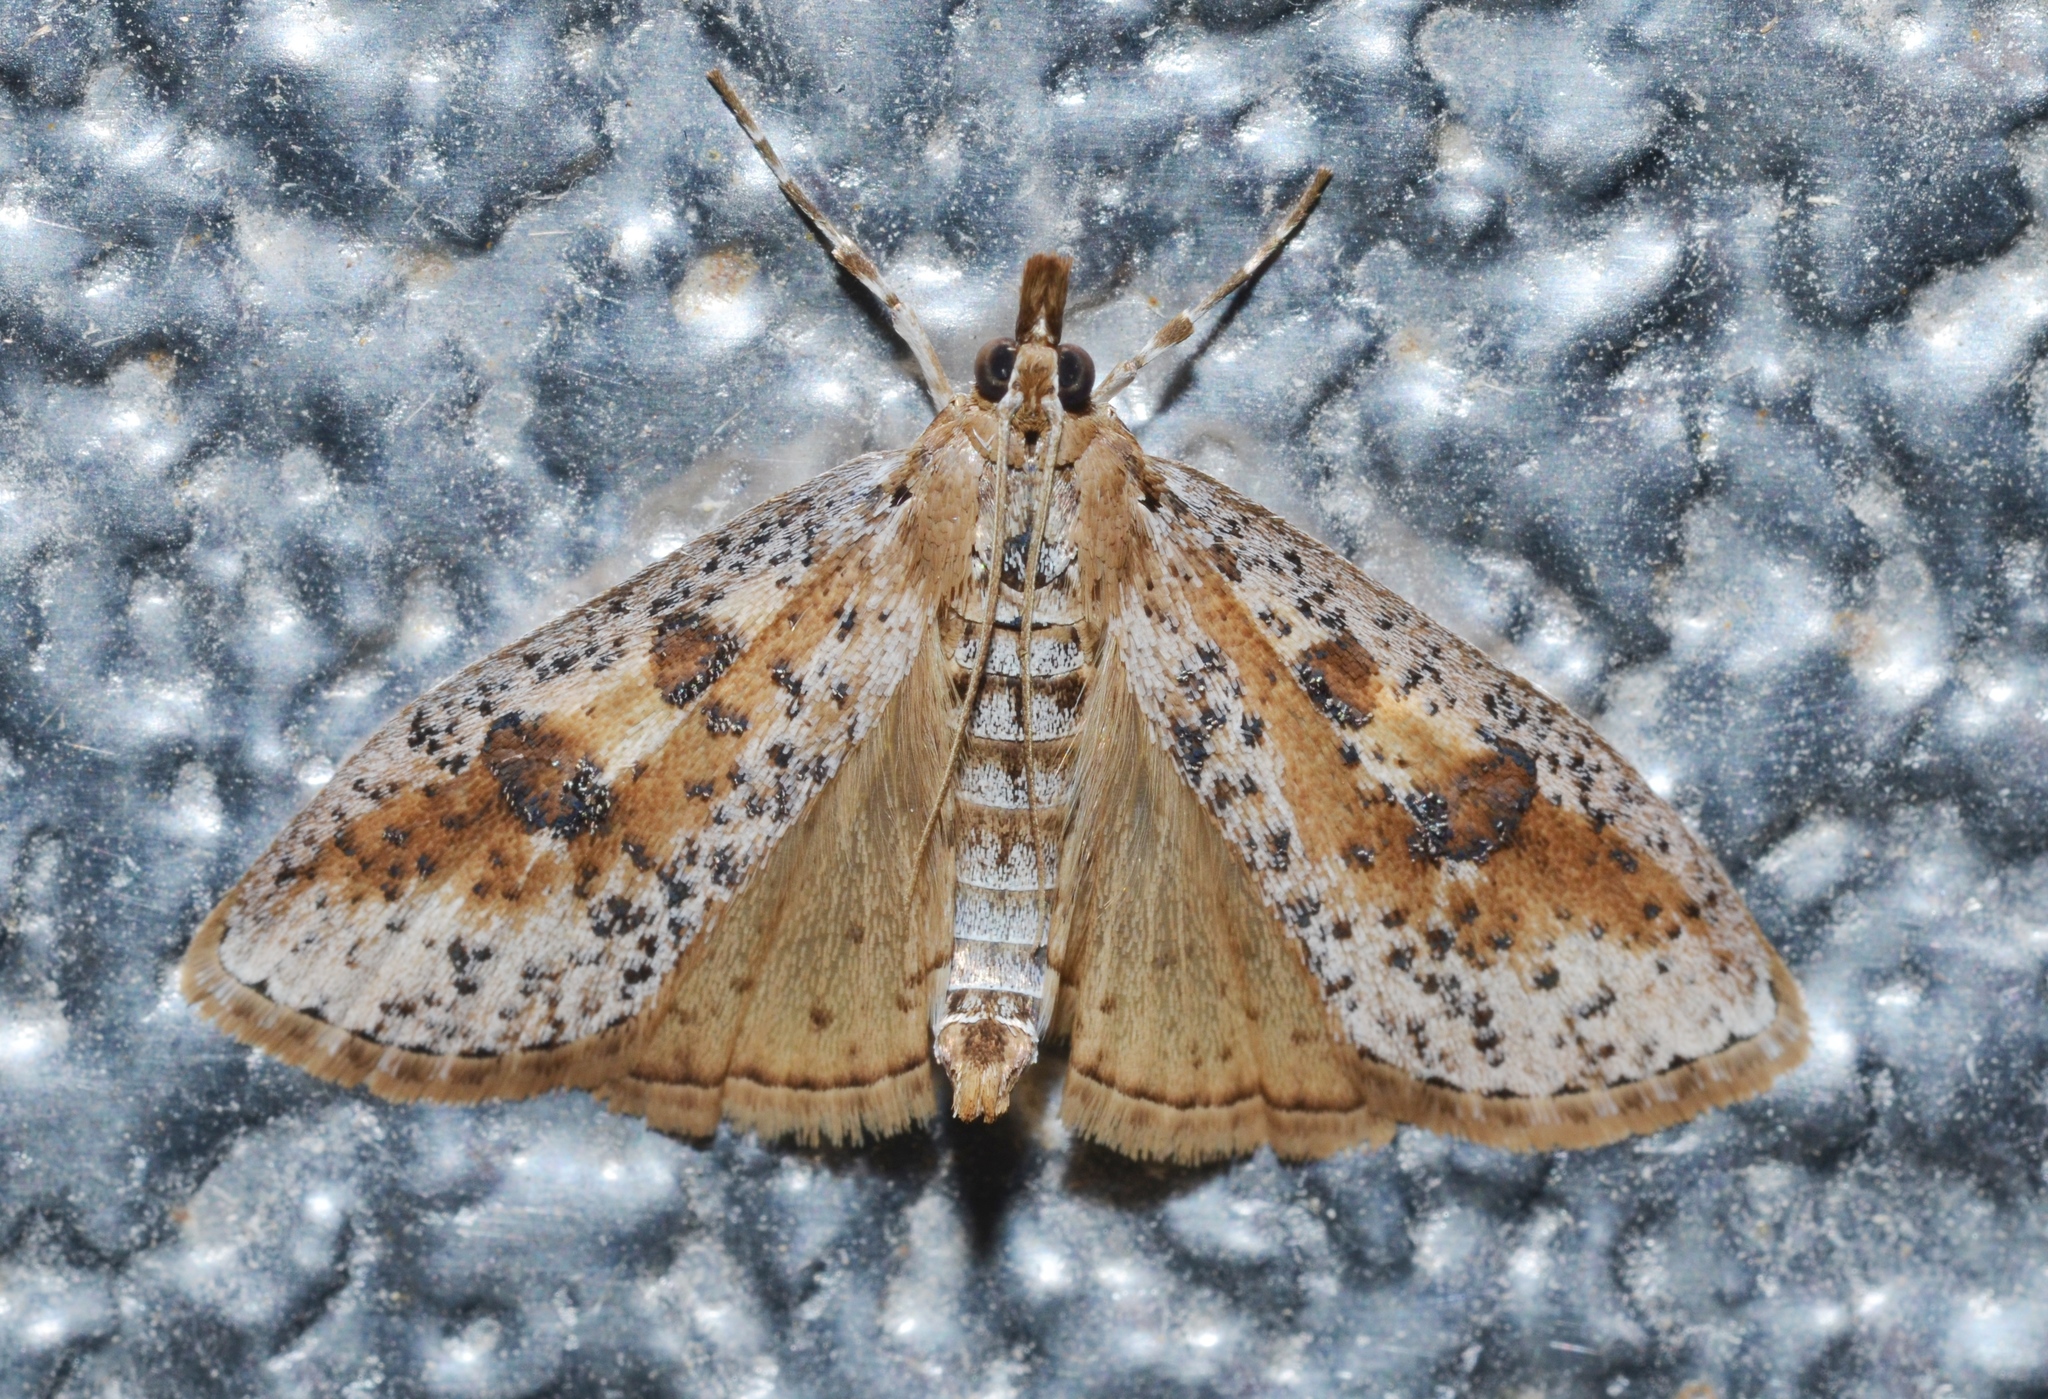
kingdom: Animalia
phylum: Arthropoda
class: Insecta
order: Lepidoptera
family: Crambidae
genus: Palpita
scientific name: Palpita aenescentalis
